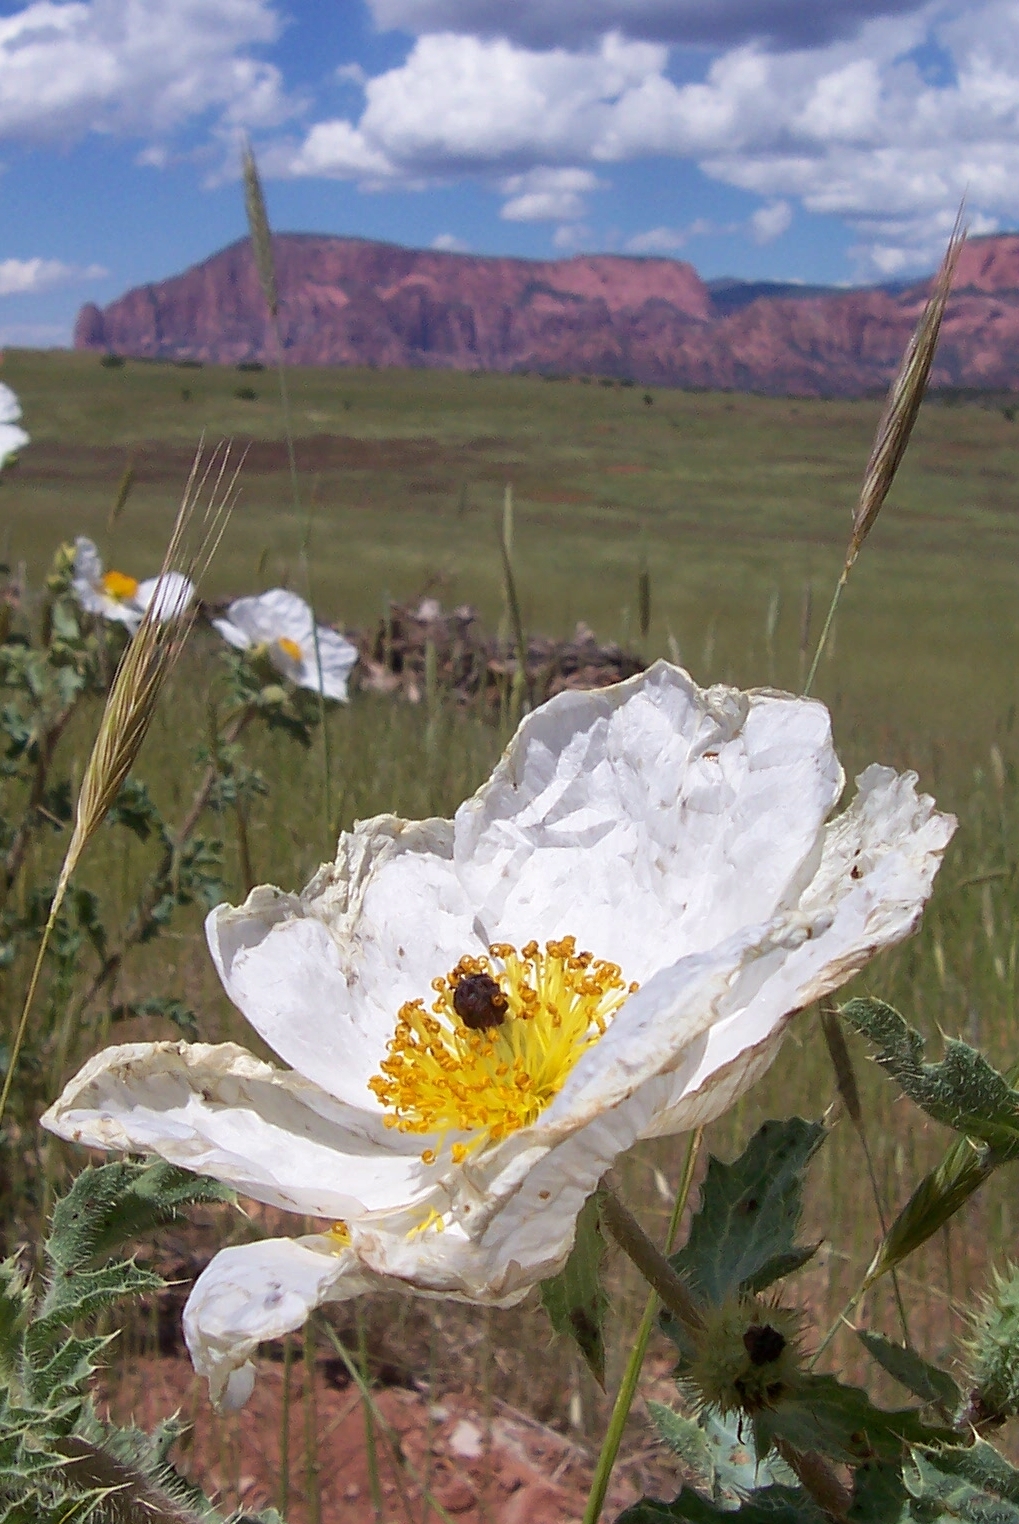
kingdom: Plantae
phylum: Tracheophyta
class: Magnoliopsida
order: Ranunculales
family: Papaveraceae
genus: Argemone
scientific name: Argemone munita
